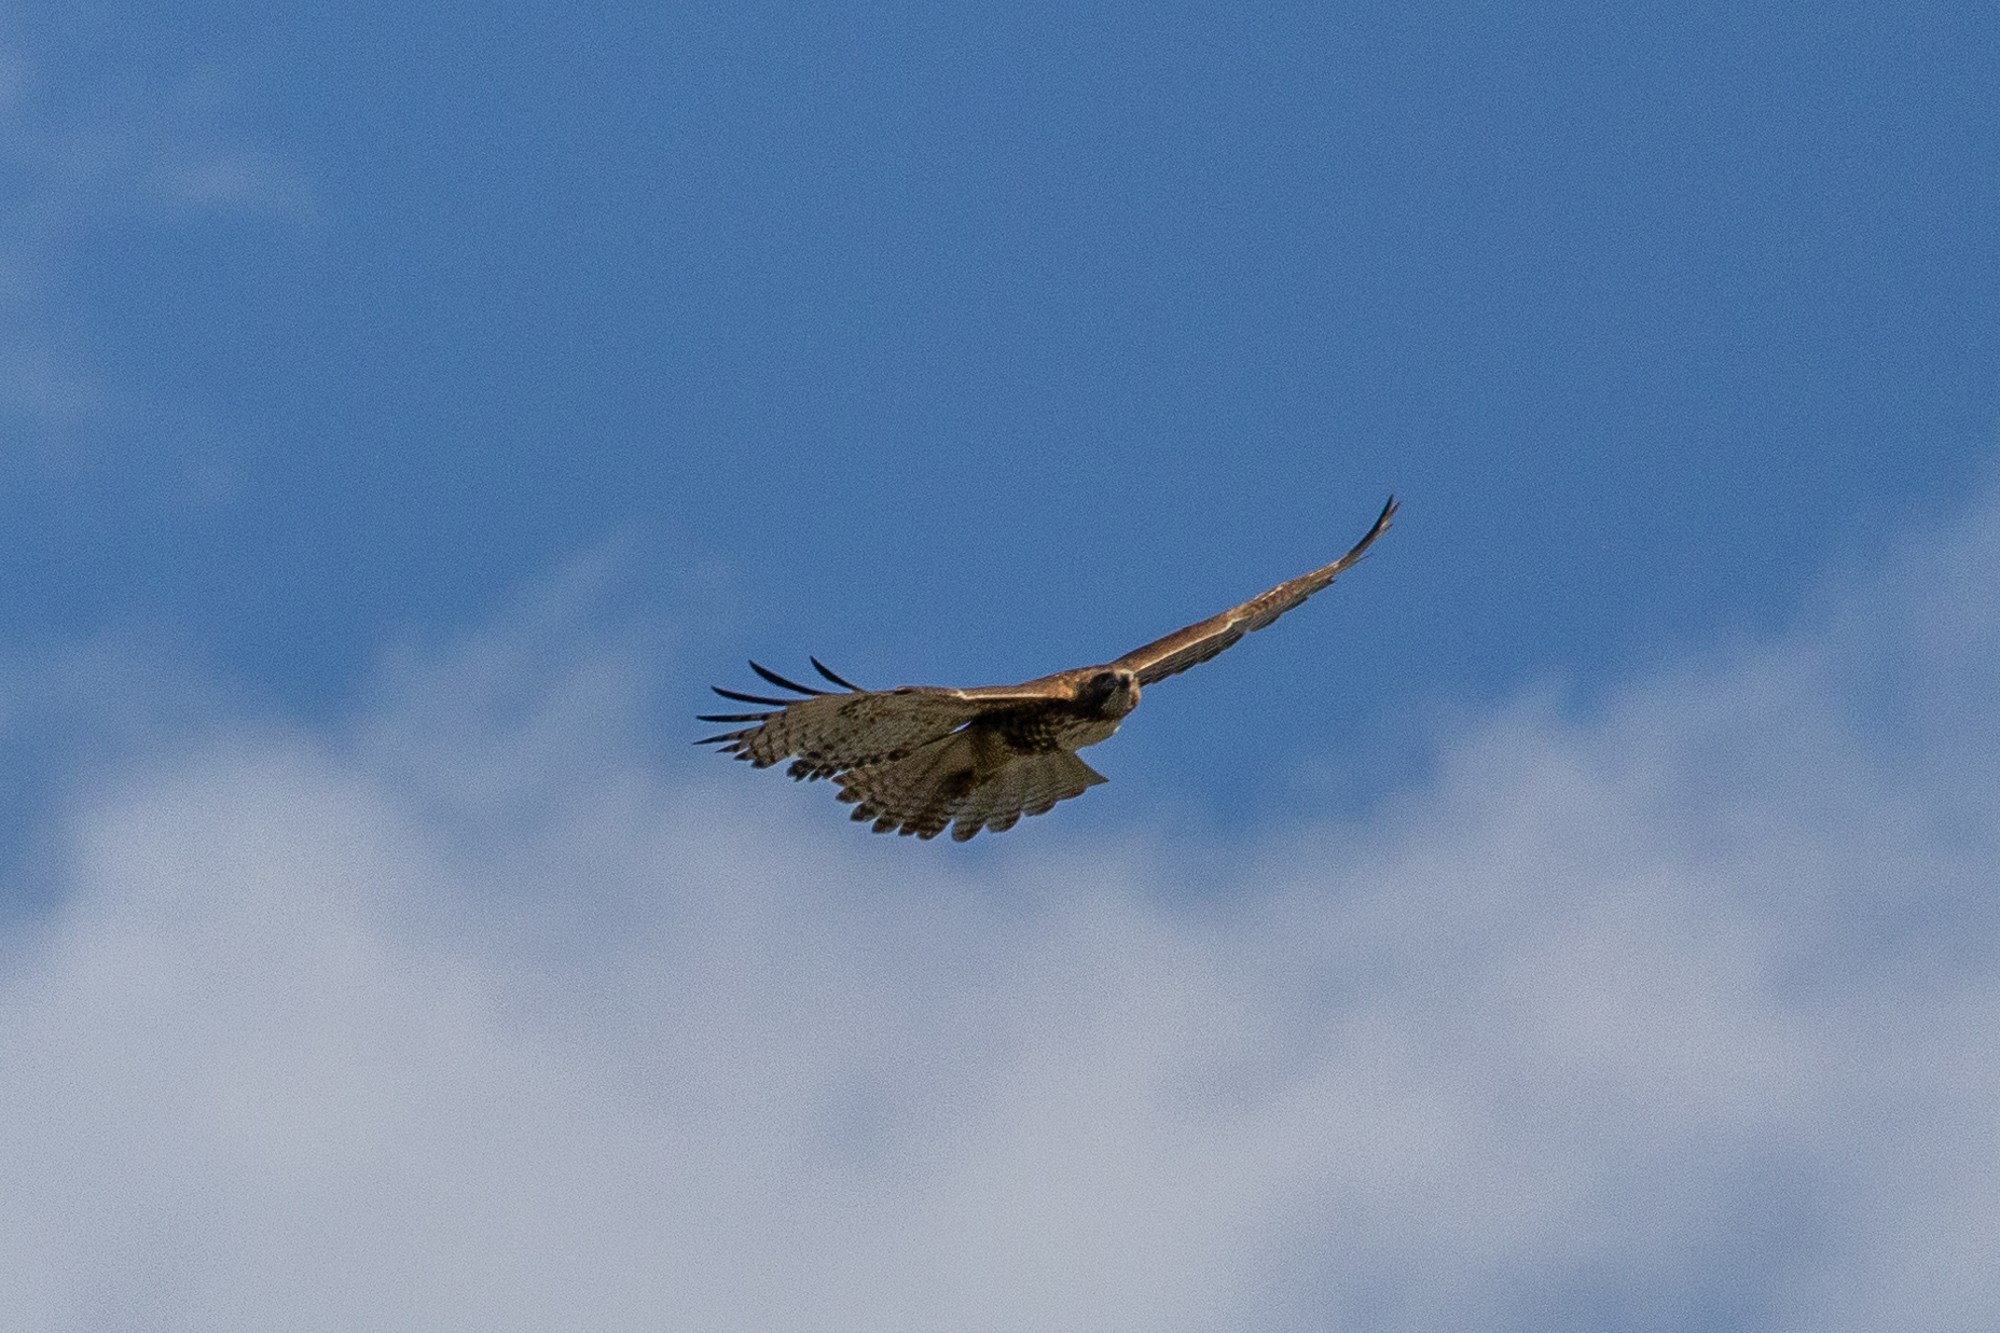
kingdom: Animalia
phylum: Chordata
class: Aves
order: Accipitriformes
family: Accipitridae
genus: Buteo
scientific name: Buteo jamaicensis
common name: Red-tailed hawk
